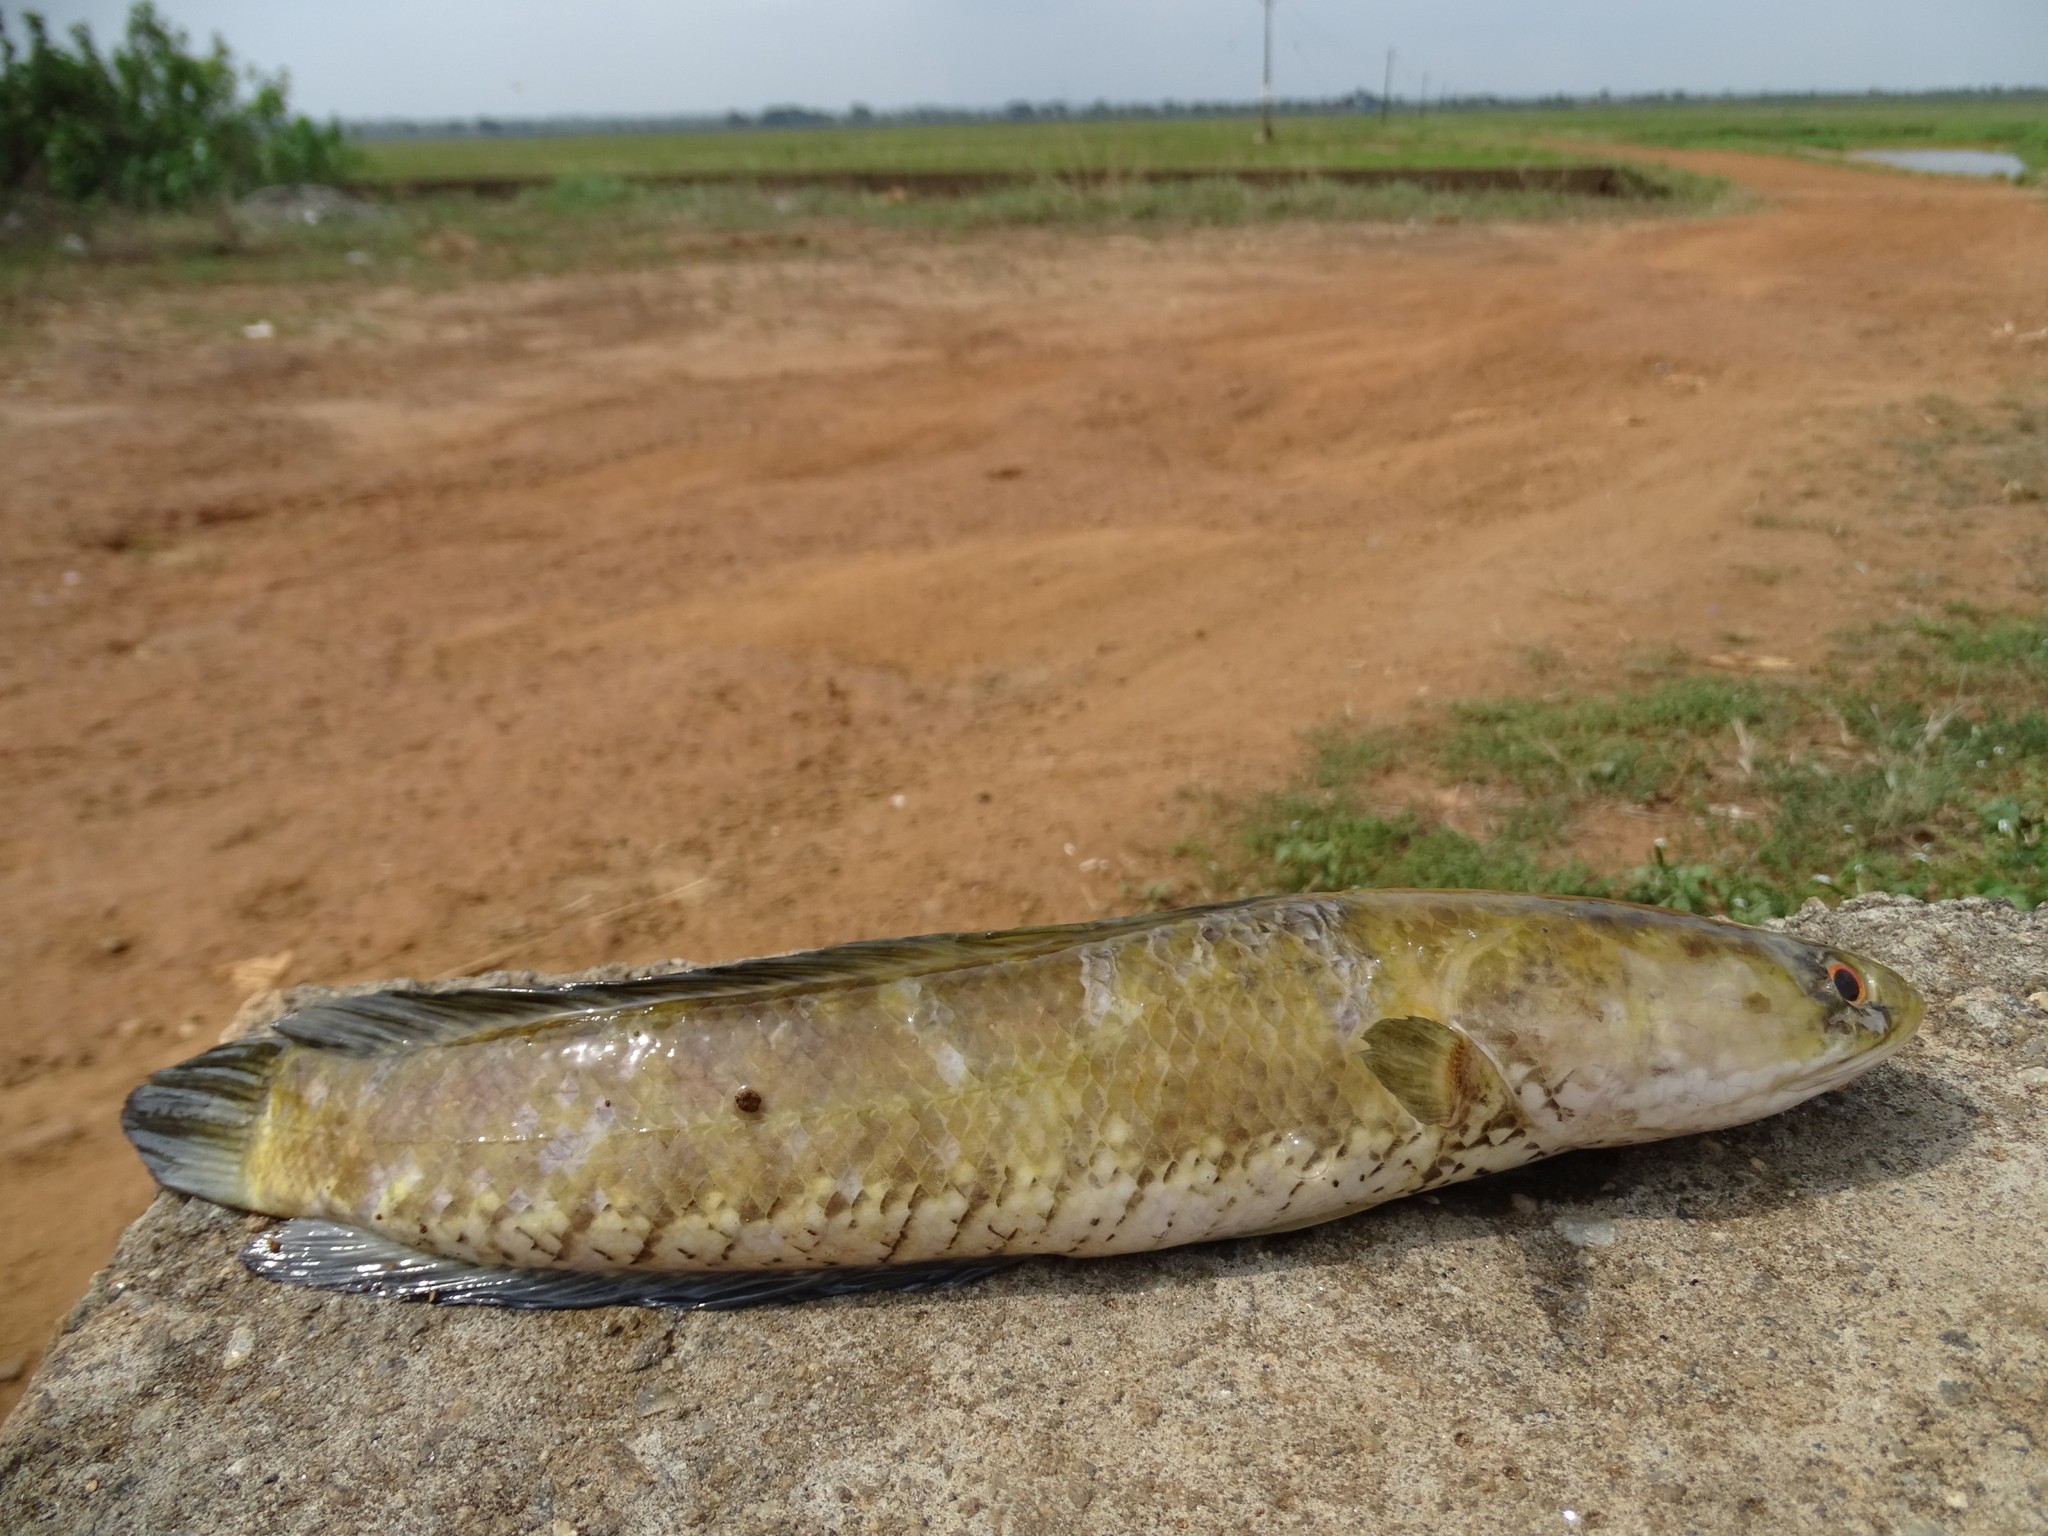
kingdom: Animalia
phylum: Chordata
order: Perciformes
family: Channidae
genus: Channa
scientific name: Channa striata
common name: Striped snakehead
